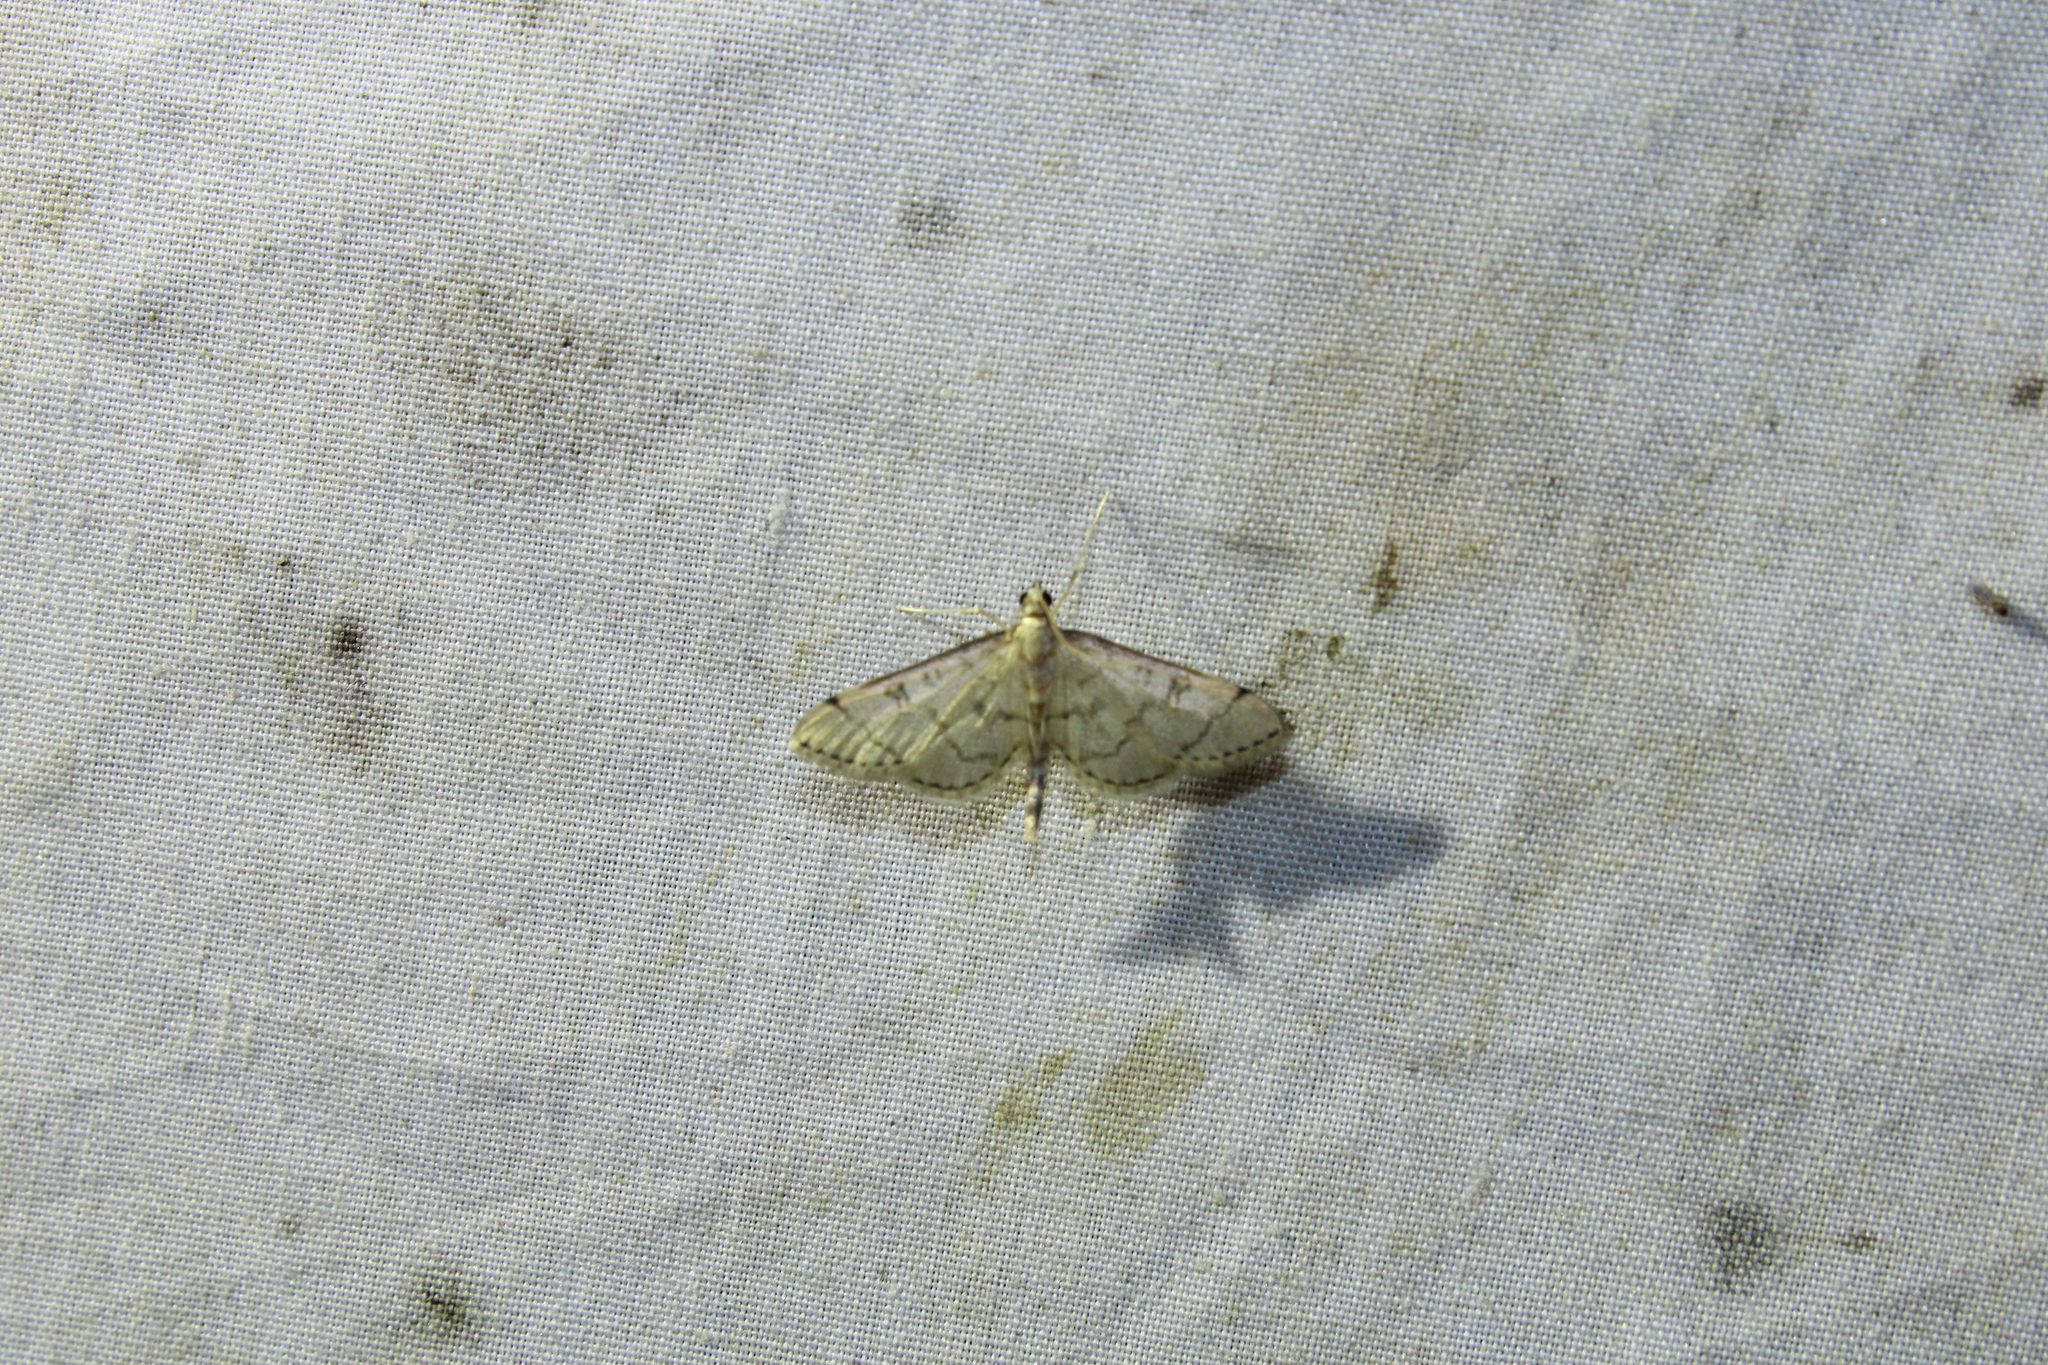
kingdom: Animalia
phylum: Arthropoda
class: Insecta
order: Lepidoptera
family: Crambidae
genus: Lamprosema
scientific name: Lamprosema Blepharomastix ranalis
